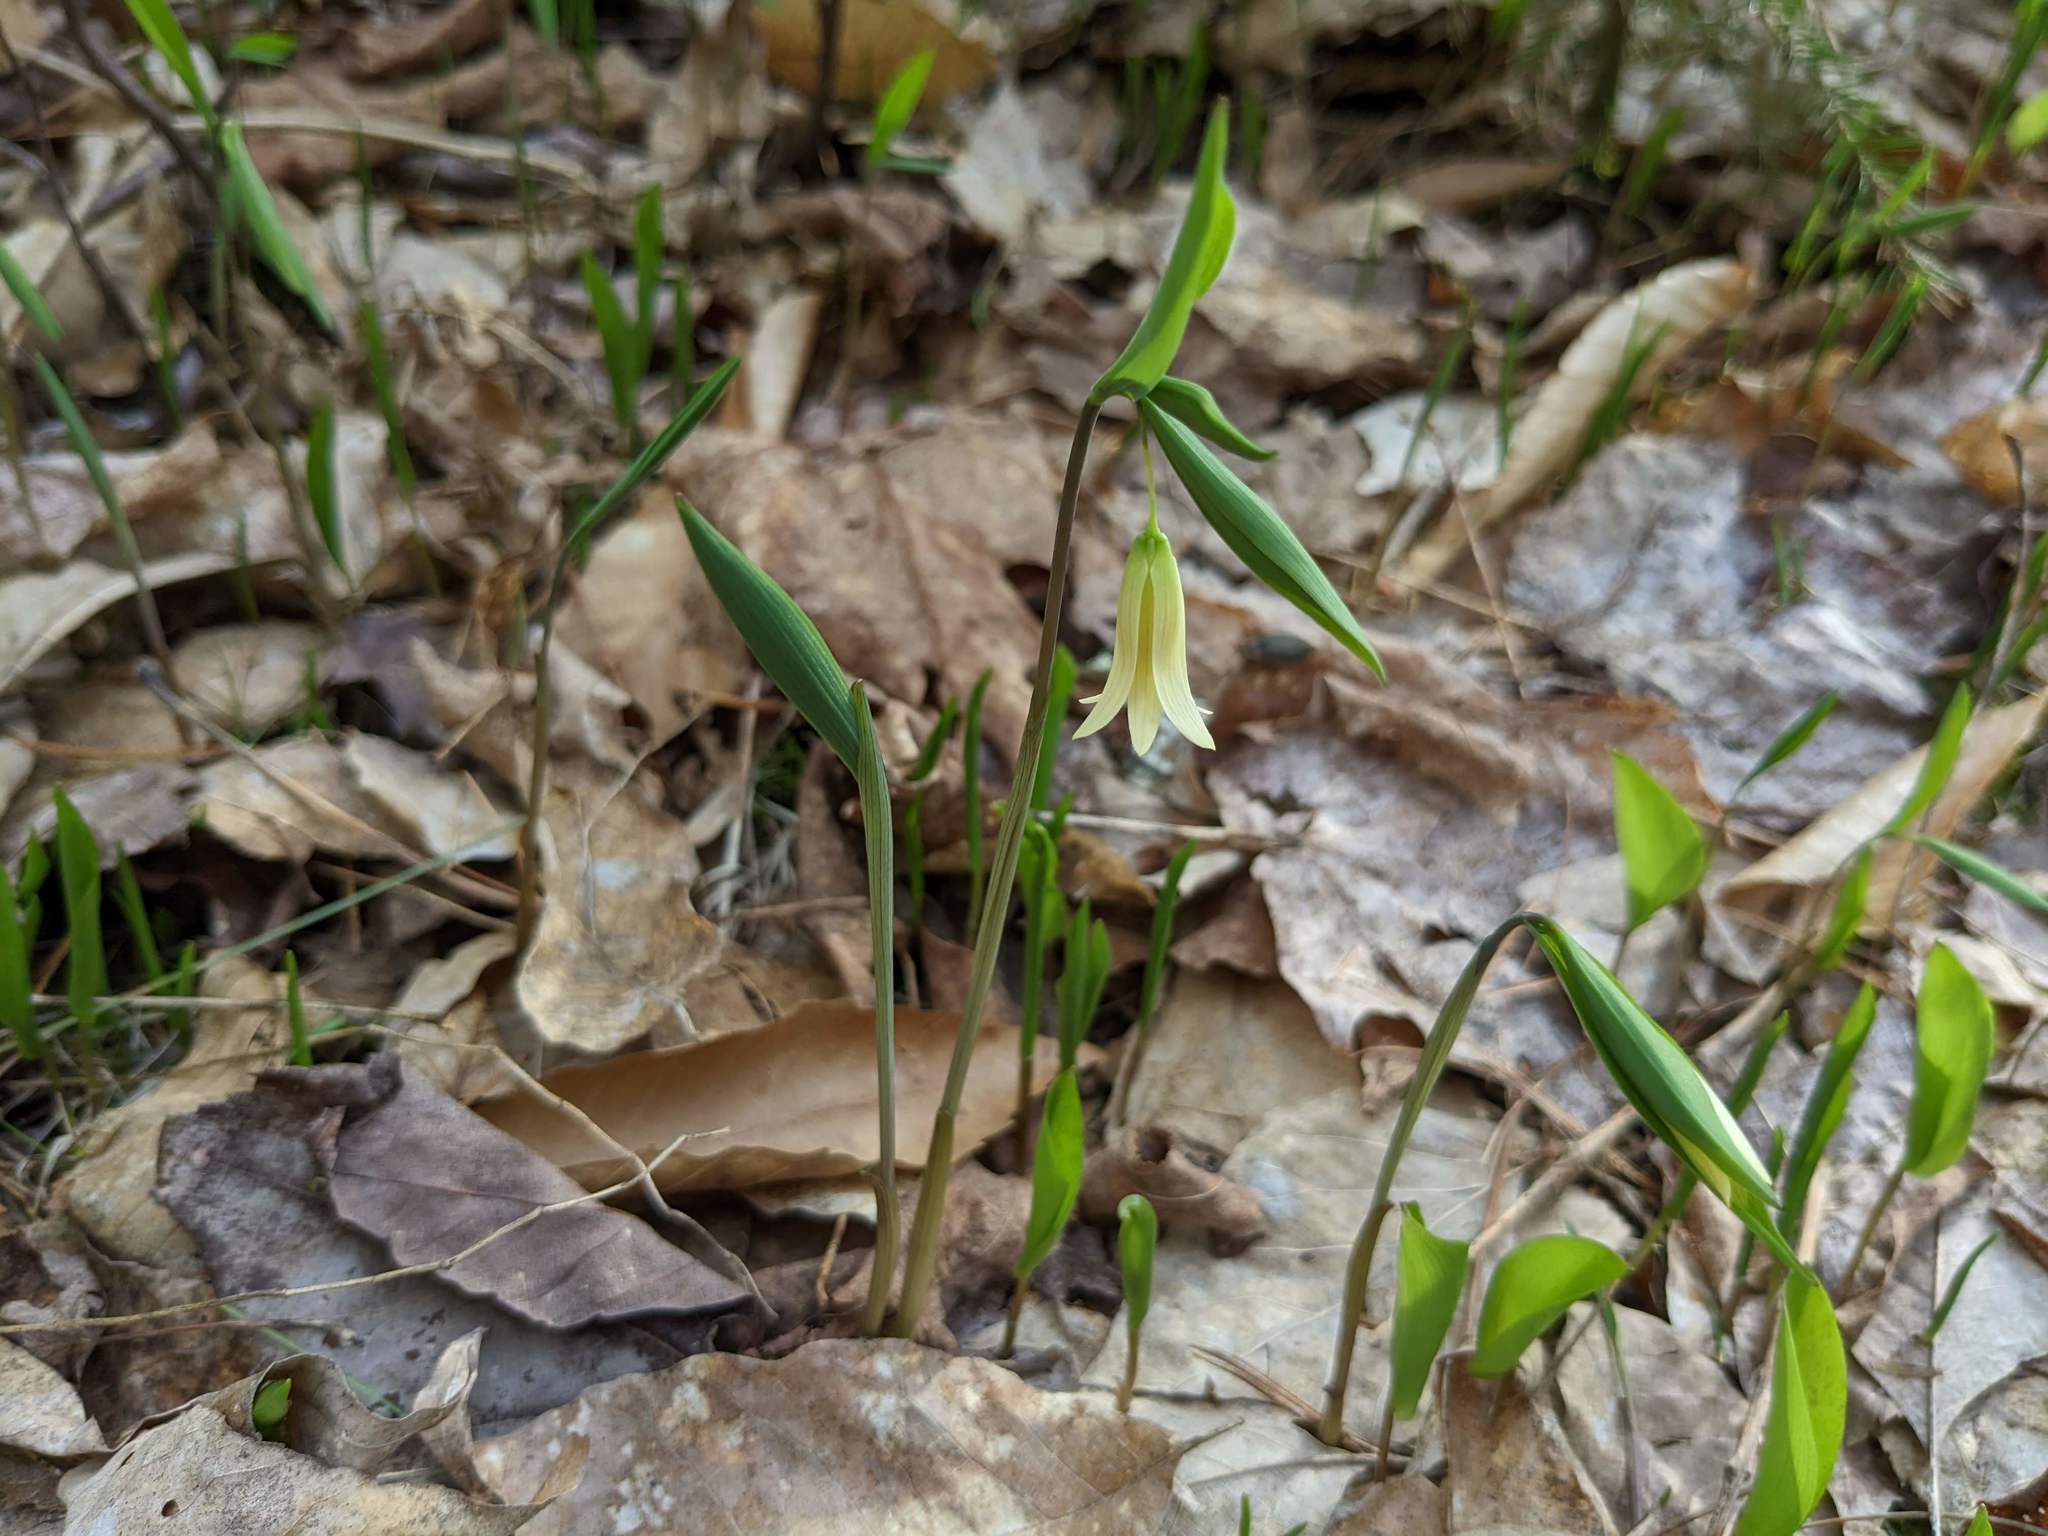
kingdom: Plantae
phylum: Tracheophyta
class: Liliopsida
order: Liliales
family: Colchicaceae
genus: Uvularia
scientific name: Uvularia sessilifolia
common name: Straw-lily
